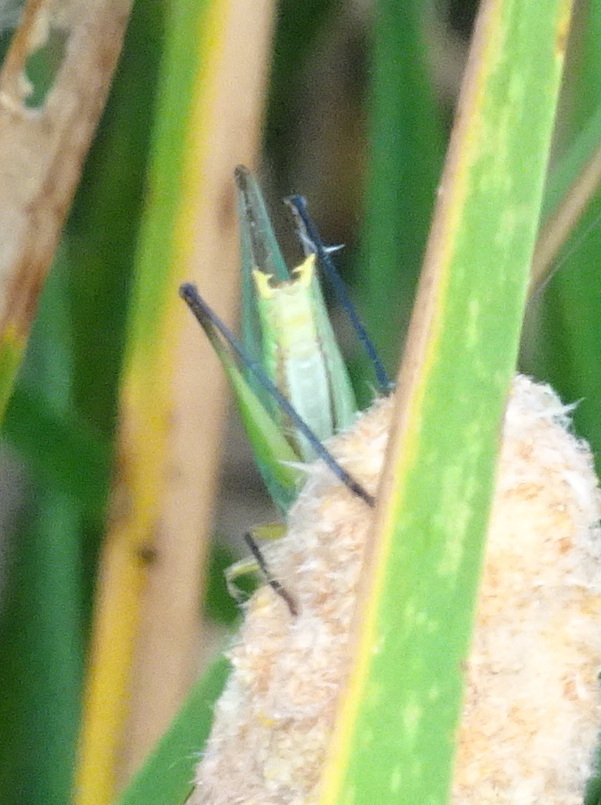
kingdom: Animalia
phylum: Arthropoda
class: Insecta
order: Orthoptera
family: Tettigoniidae
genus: Orchelimum
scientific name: Orchelimum nigripes
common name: Black-legged meadow katydid
